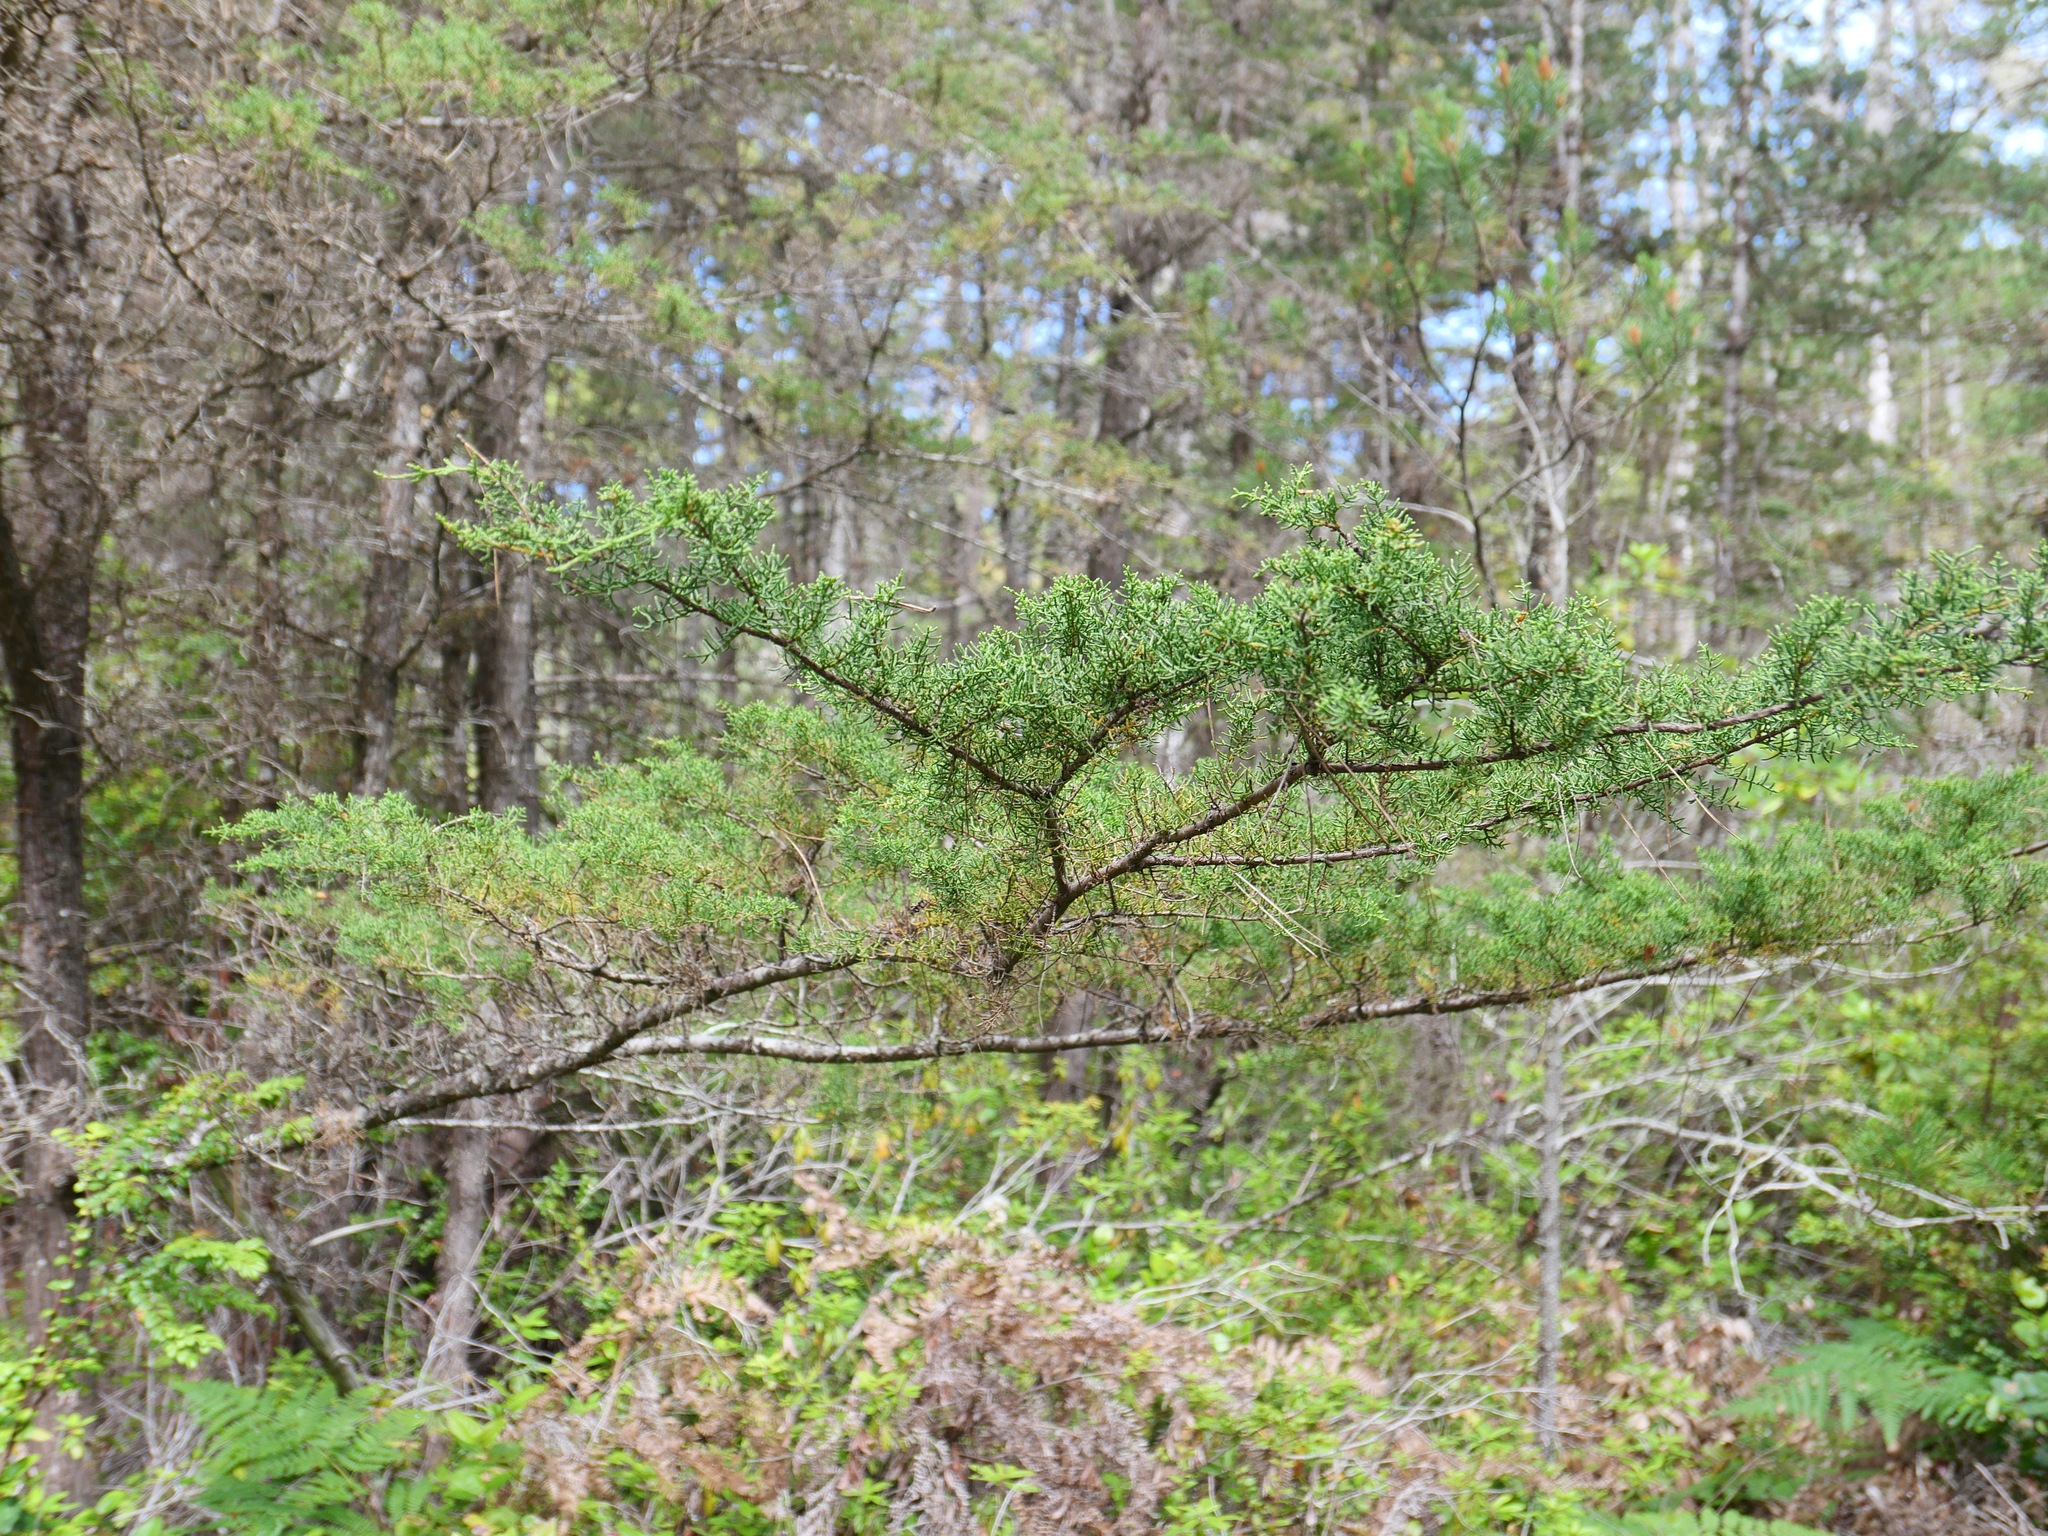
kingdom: Plantae
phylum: Tracheophyta
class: Pinopsida
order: Pinales
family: Cupressaceae
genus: Cupressus
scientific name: Cupressus goveniana
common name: Gowen cypress
